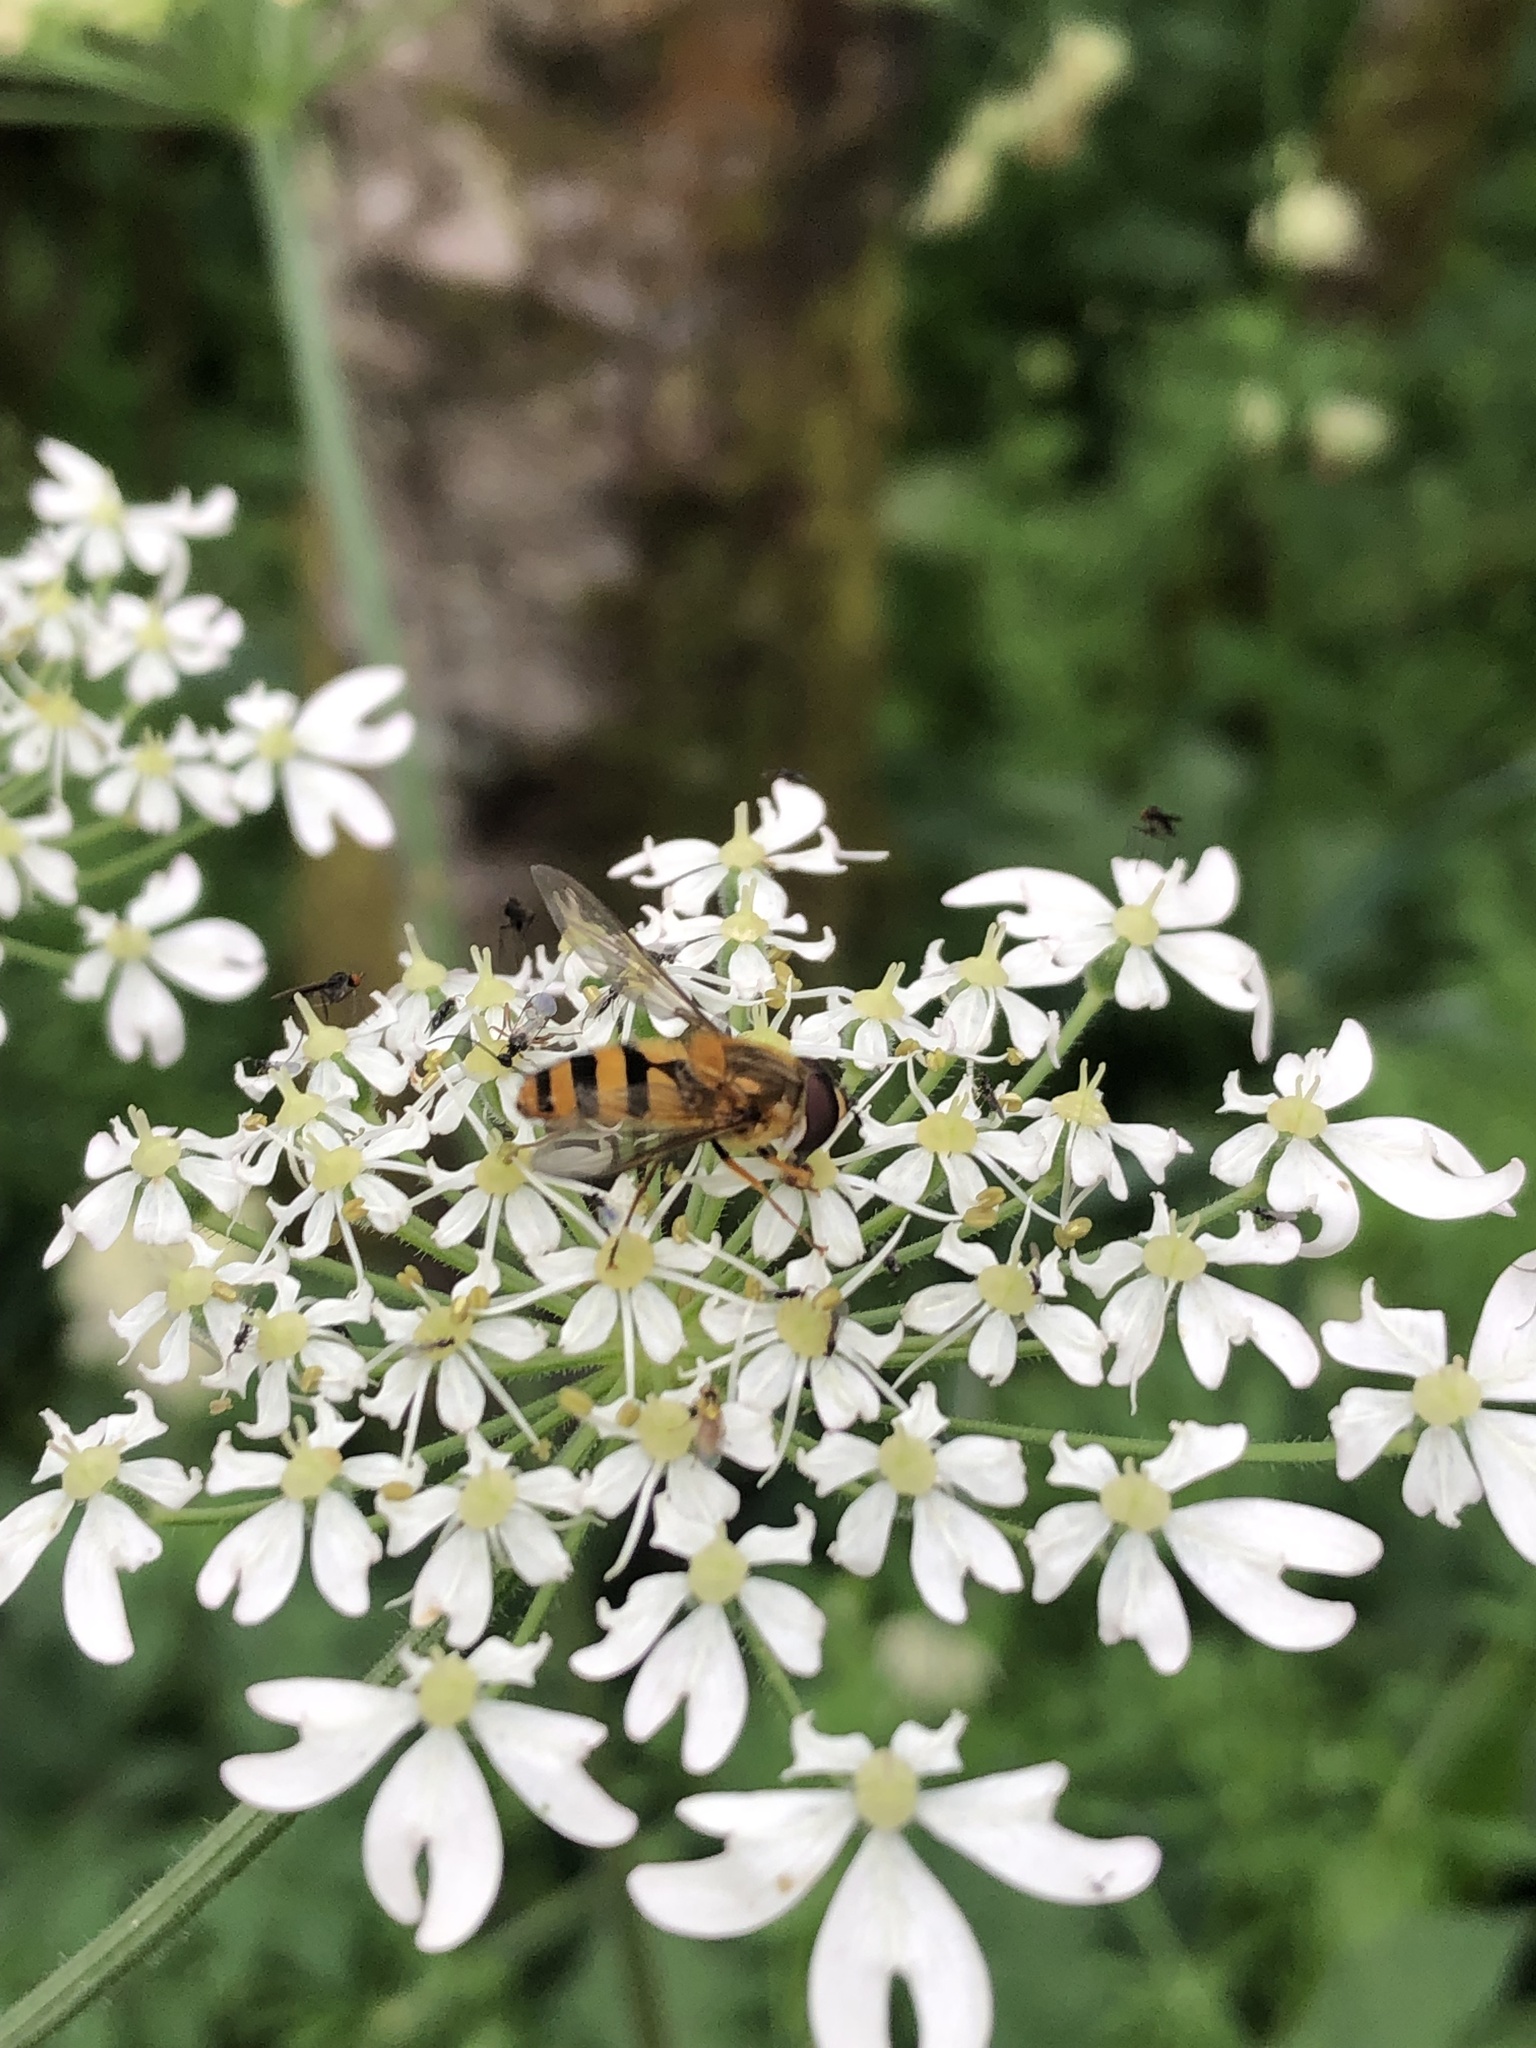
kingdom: Animalia
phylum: Arthropoda
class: Insecta
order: Diptera
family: Syrphidae
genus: Epistrophe
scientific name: Epistrophe grossulariae
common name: Black-horned smoothtail
